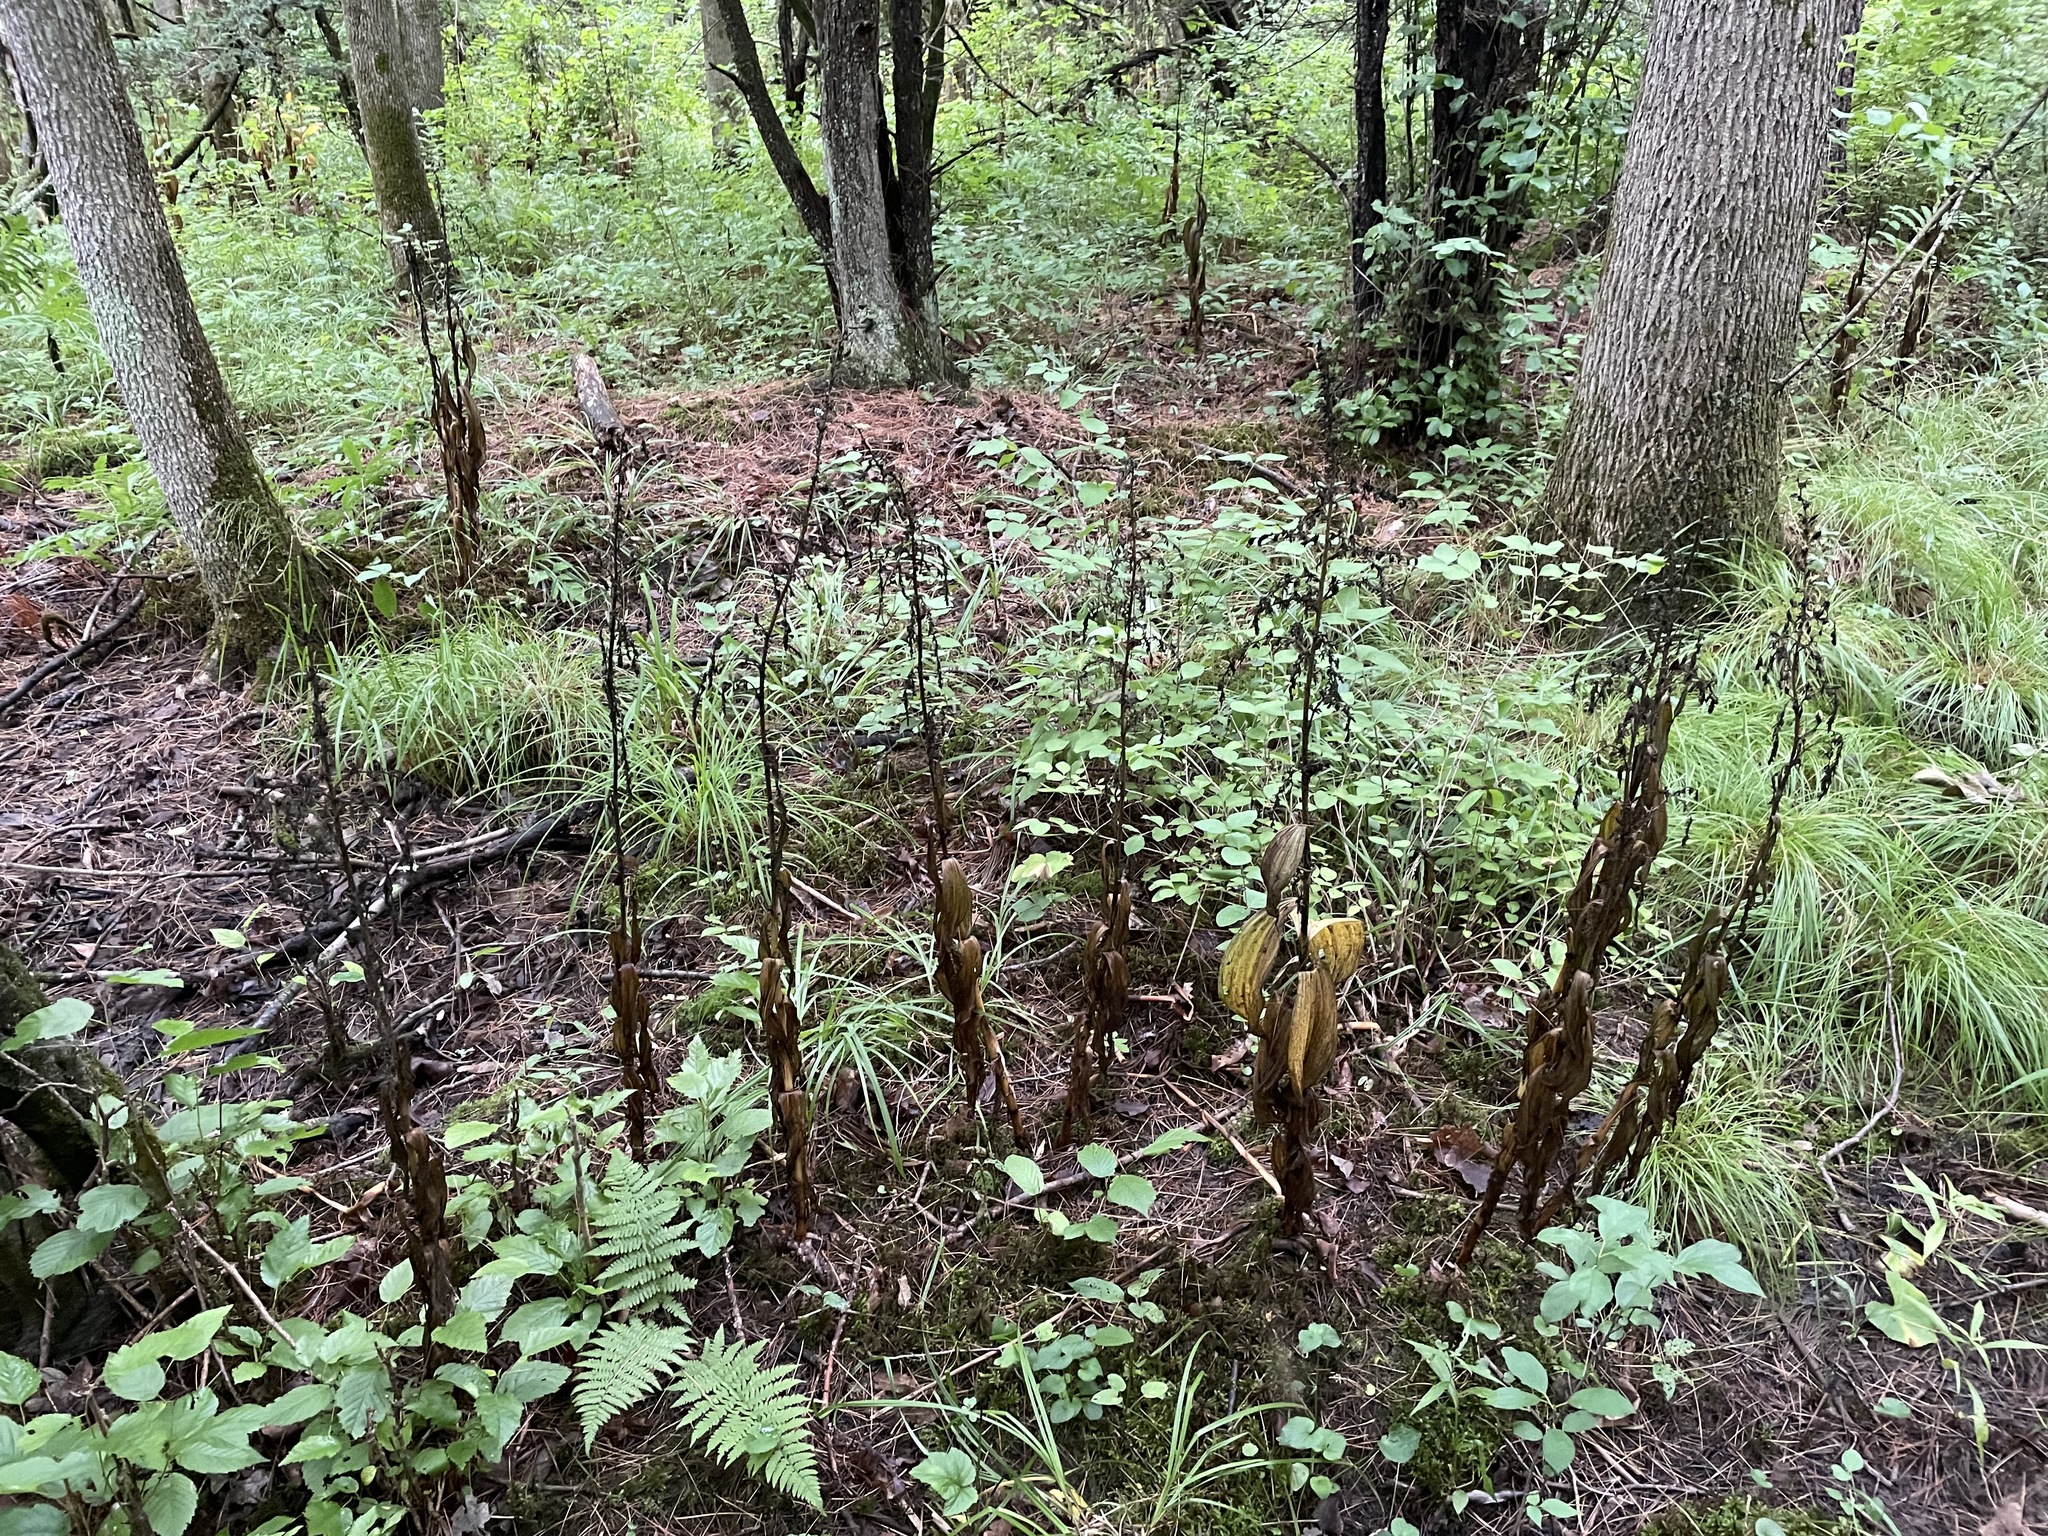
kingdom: Plantae
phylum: Tracheophyta
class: Liliopsida
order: Liliales
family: Melanthiaceae
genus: Veratrum
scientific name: Veratrum viride
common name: American false hellebore
